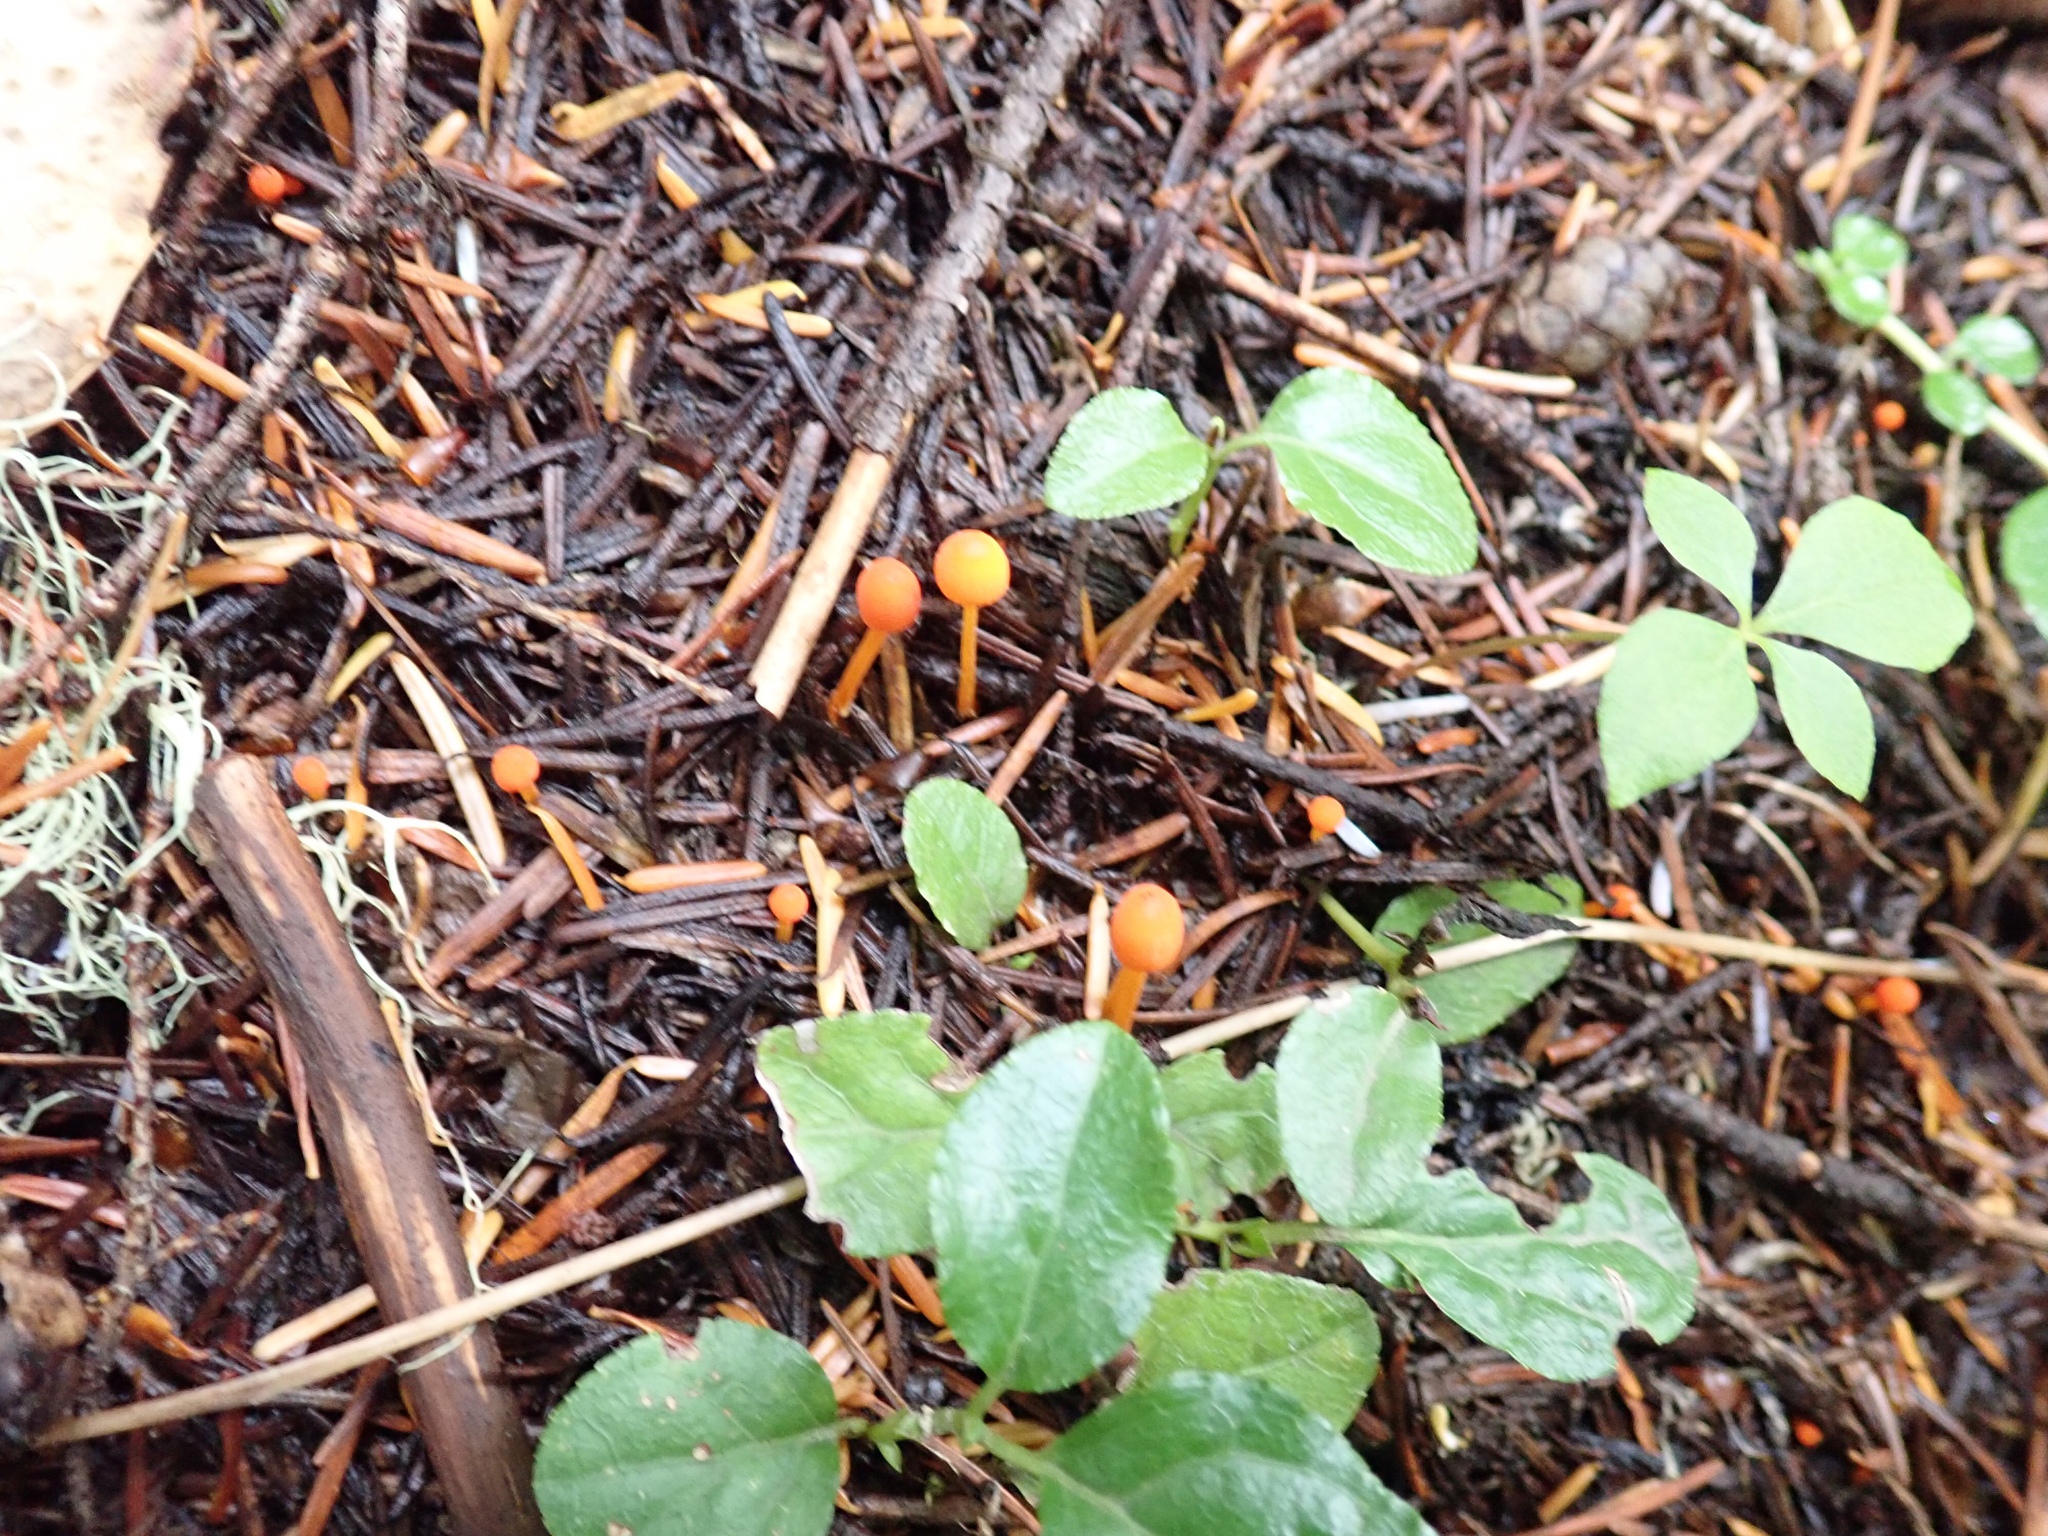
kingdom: Fungi
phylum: Basidiomycota
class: Agaricomycetes
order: Agaricales
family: Mycenaceae
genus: Mycena
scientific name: Mycena strobilinoidea
